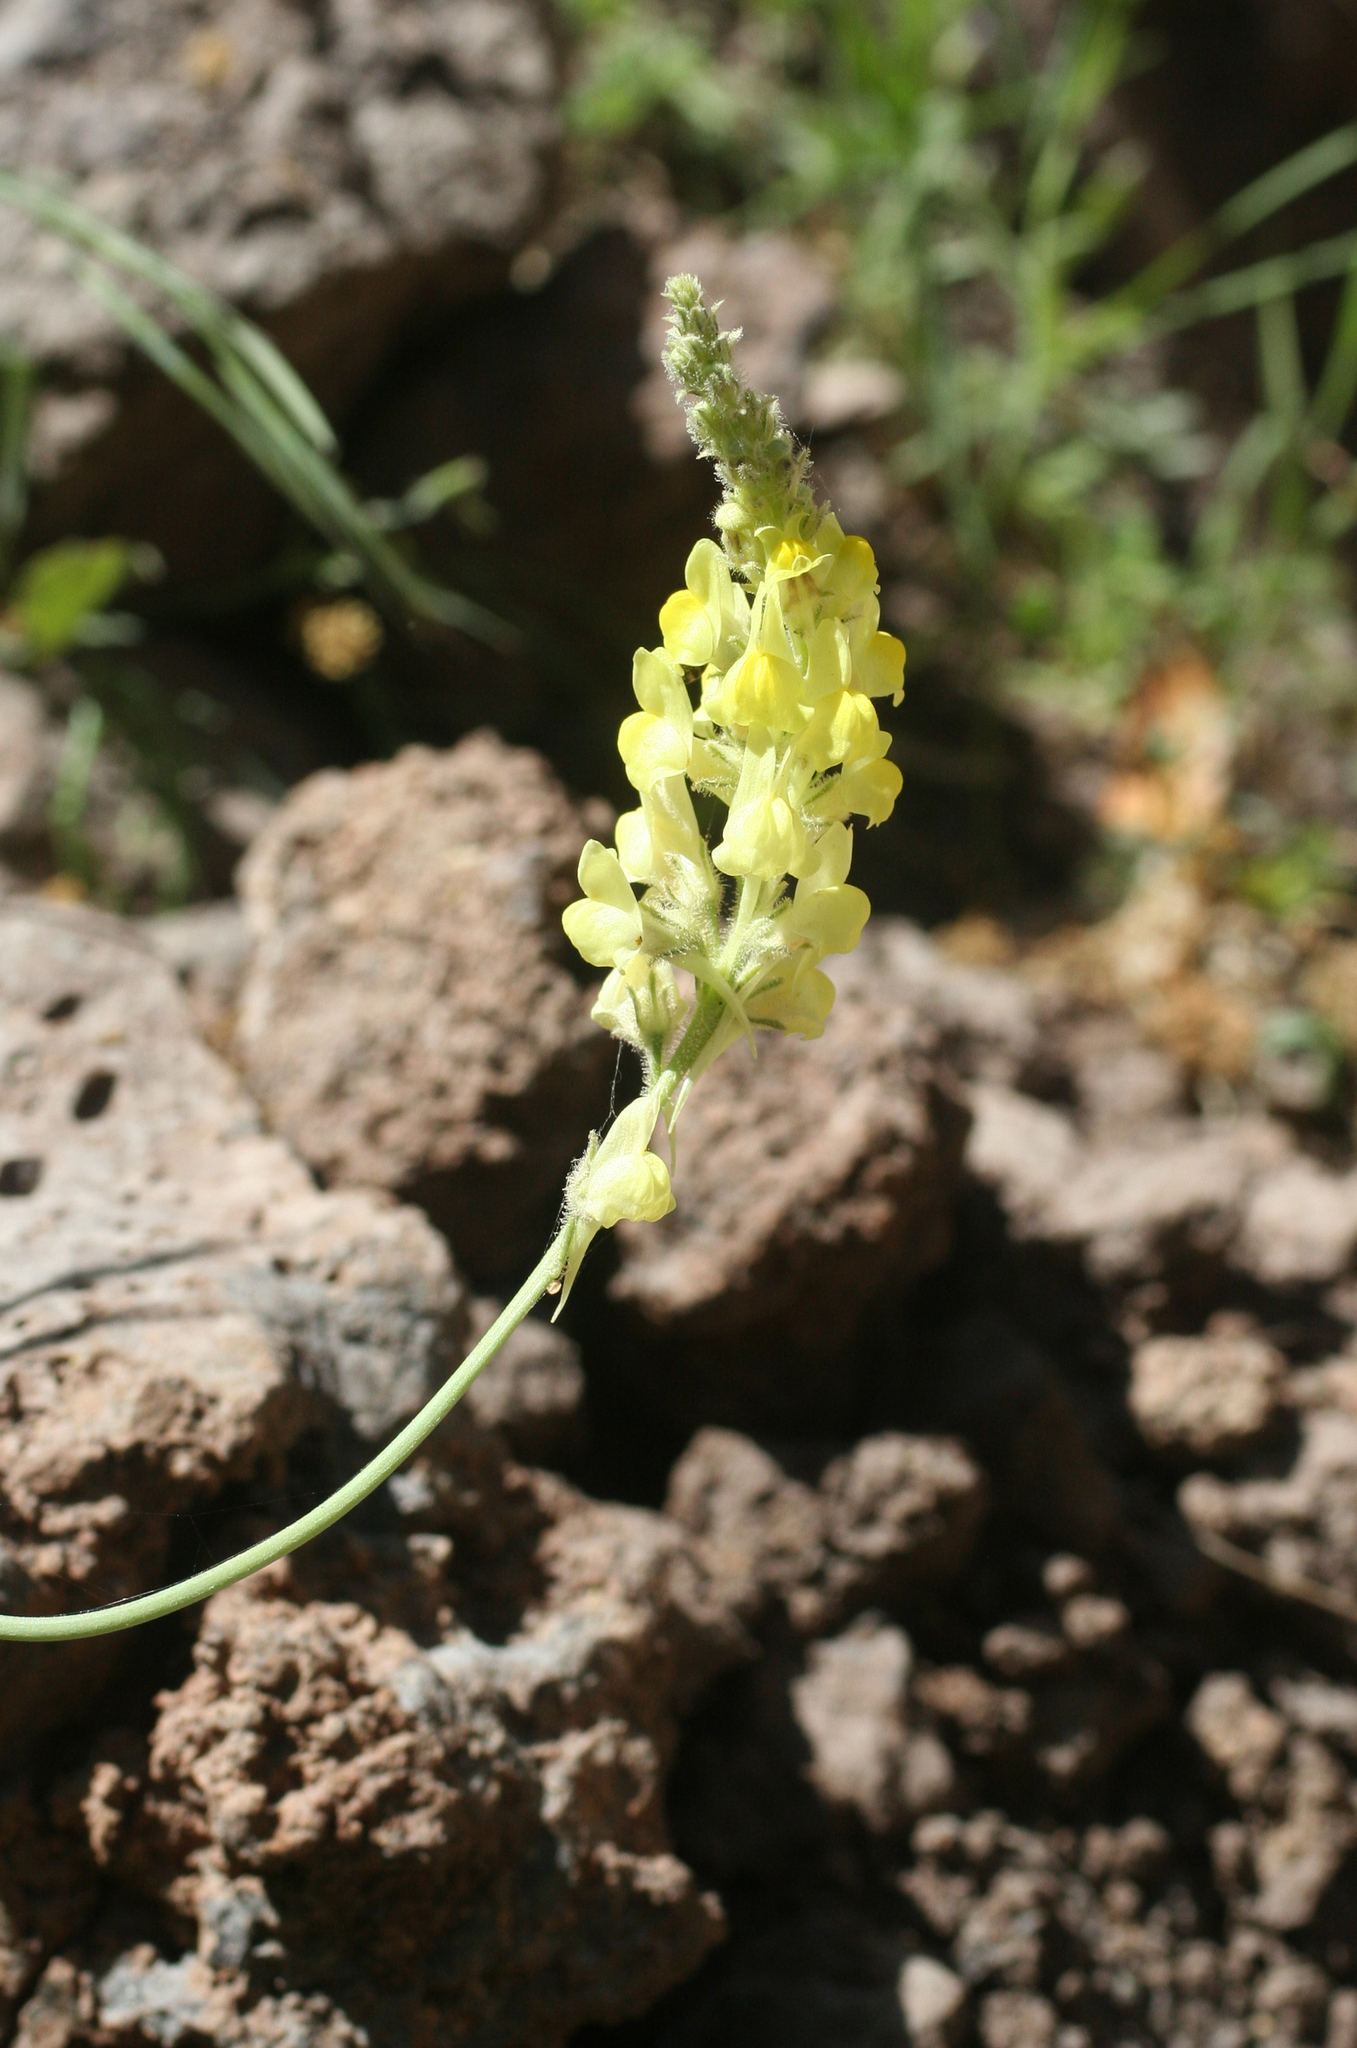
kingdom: Plantae
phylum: Tracheophyta
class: Magnoliopsida
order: Lamiales
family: Plantaginaceae
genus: Linaria
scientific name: Linaria multicaulis
